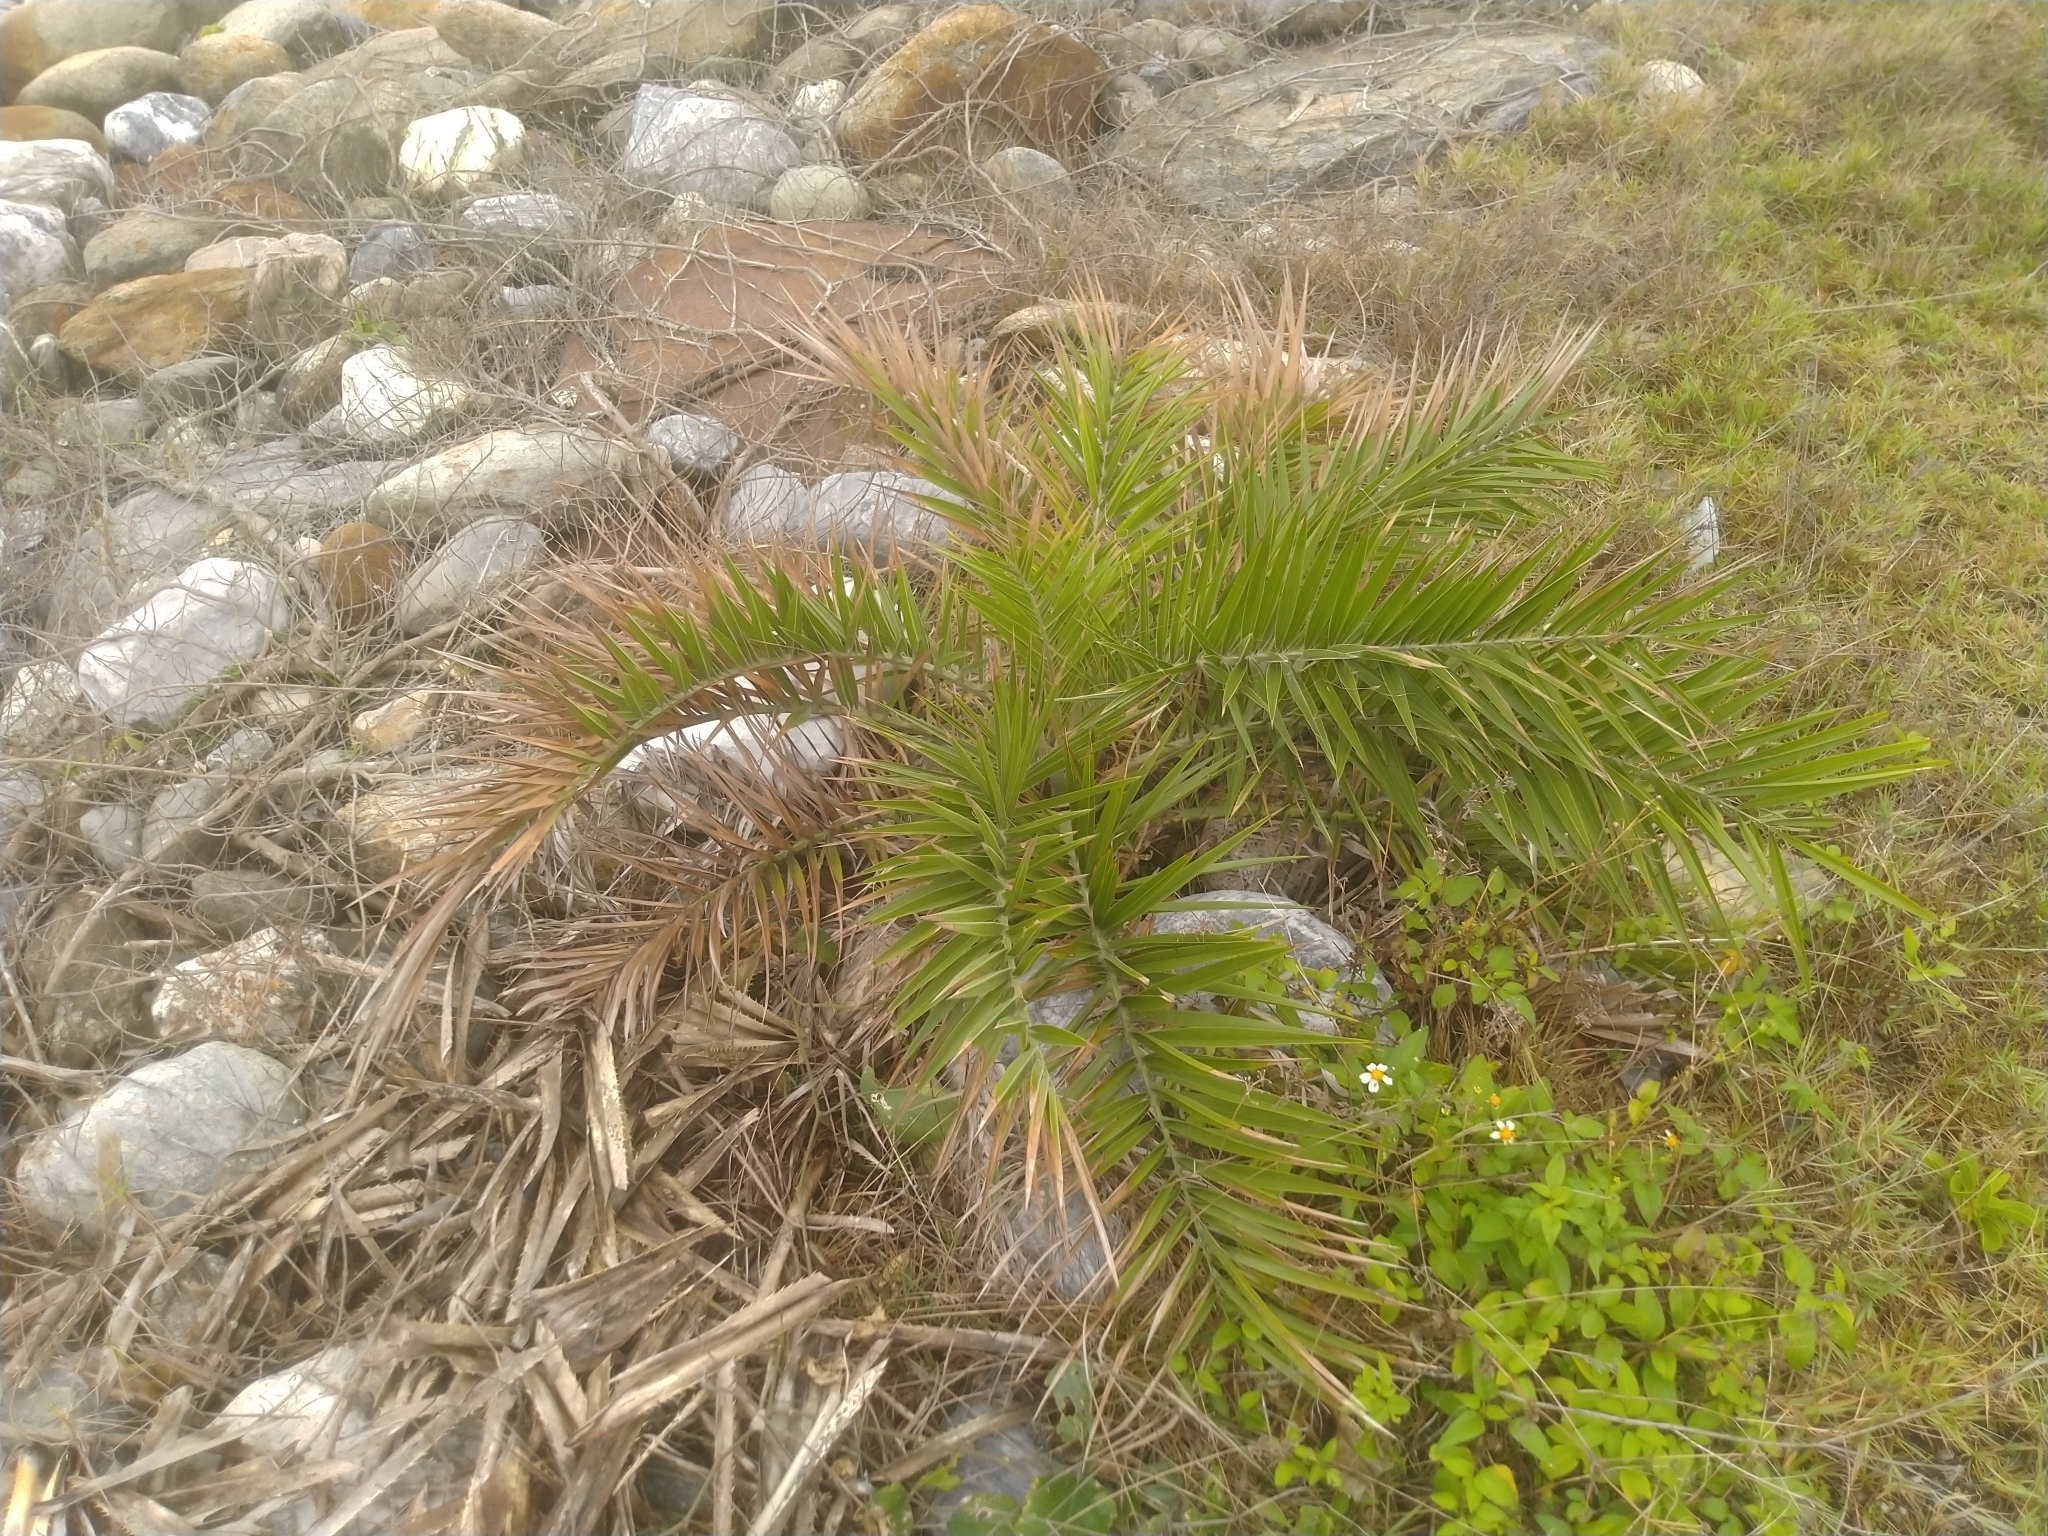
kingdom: Plantae
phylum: Tracheophyta
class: Liliopsida
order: Arecales
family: Arecaceae
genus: Phoenix
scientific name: Phoenix loureiroi
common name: Loureiro's palm
